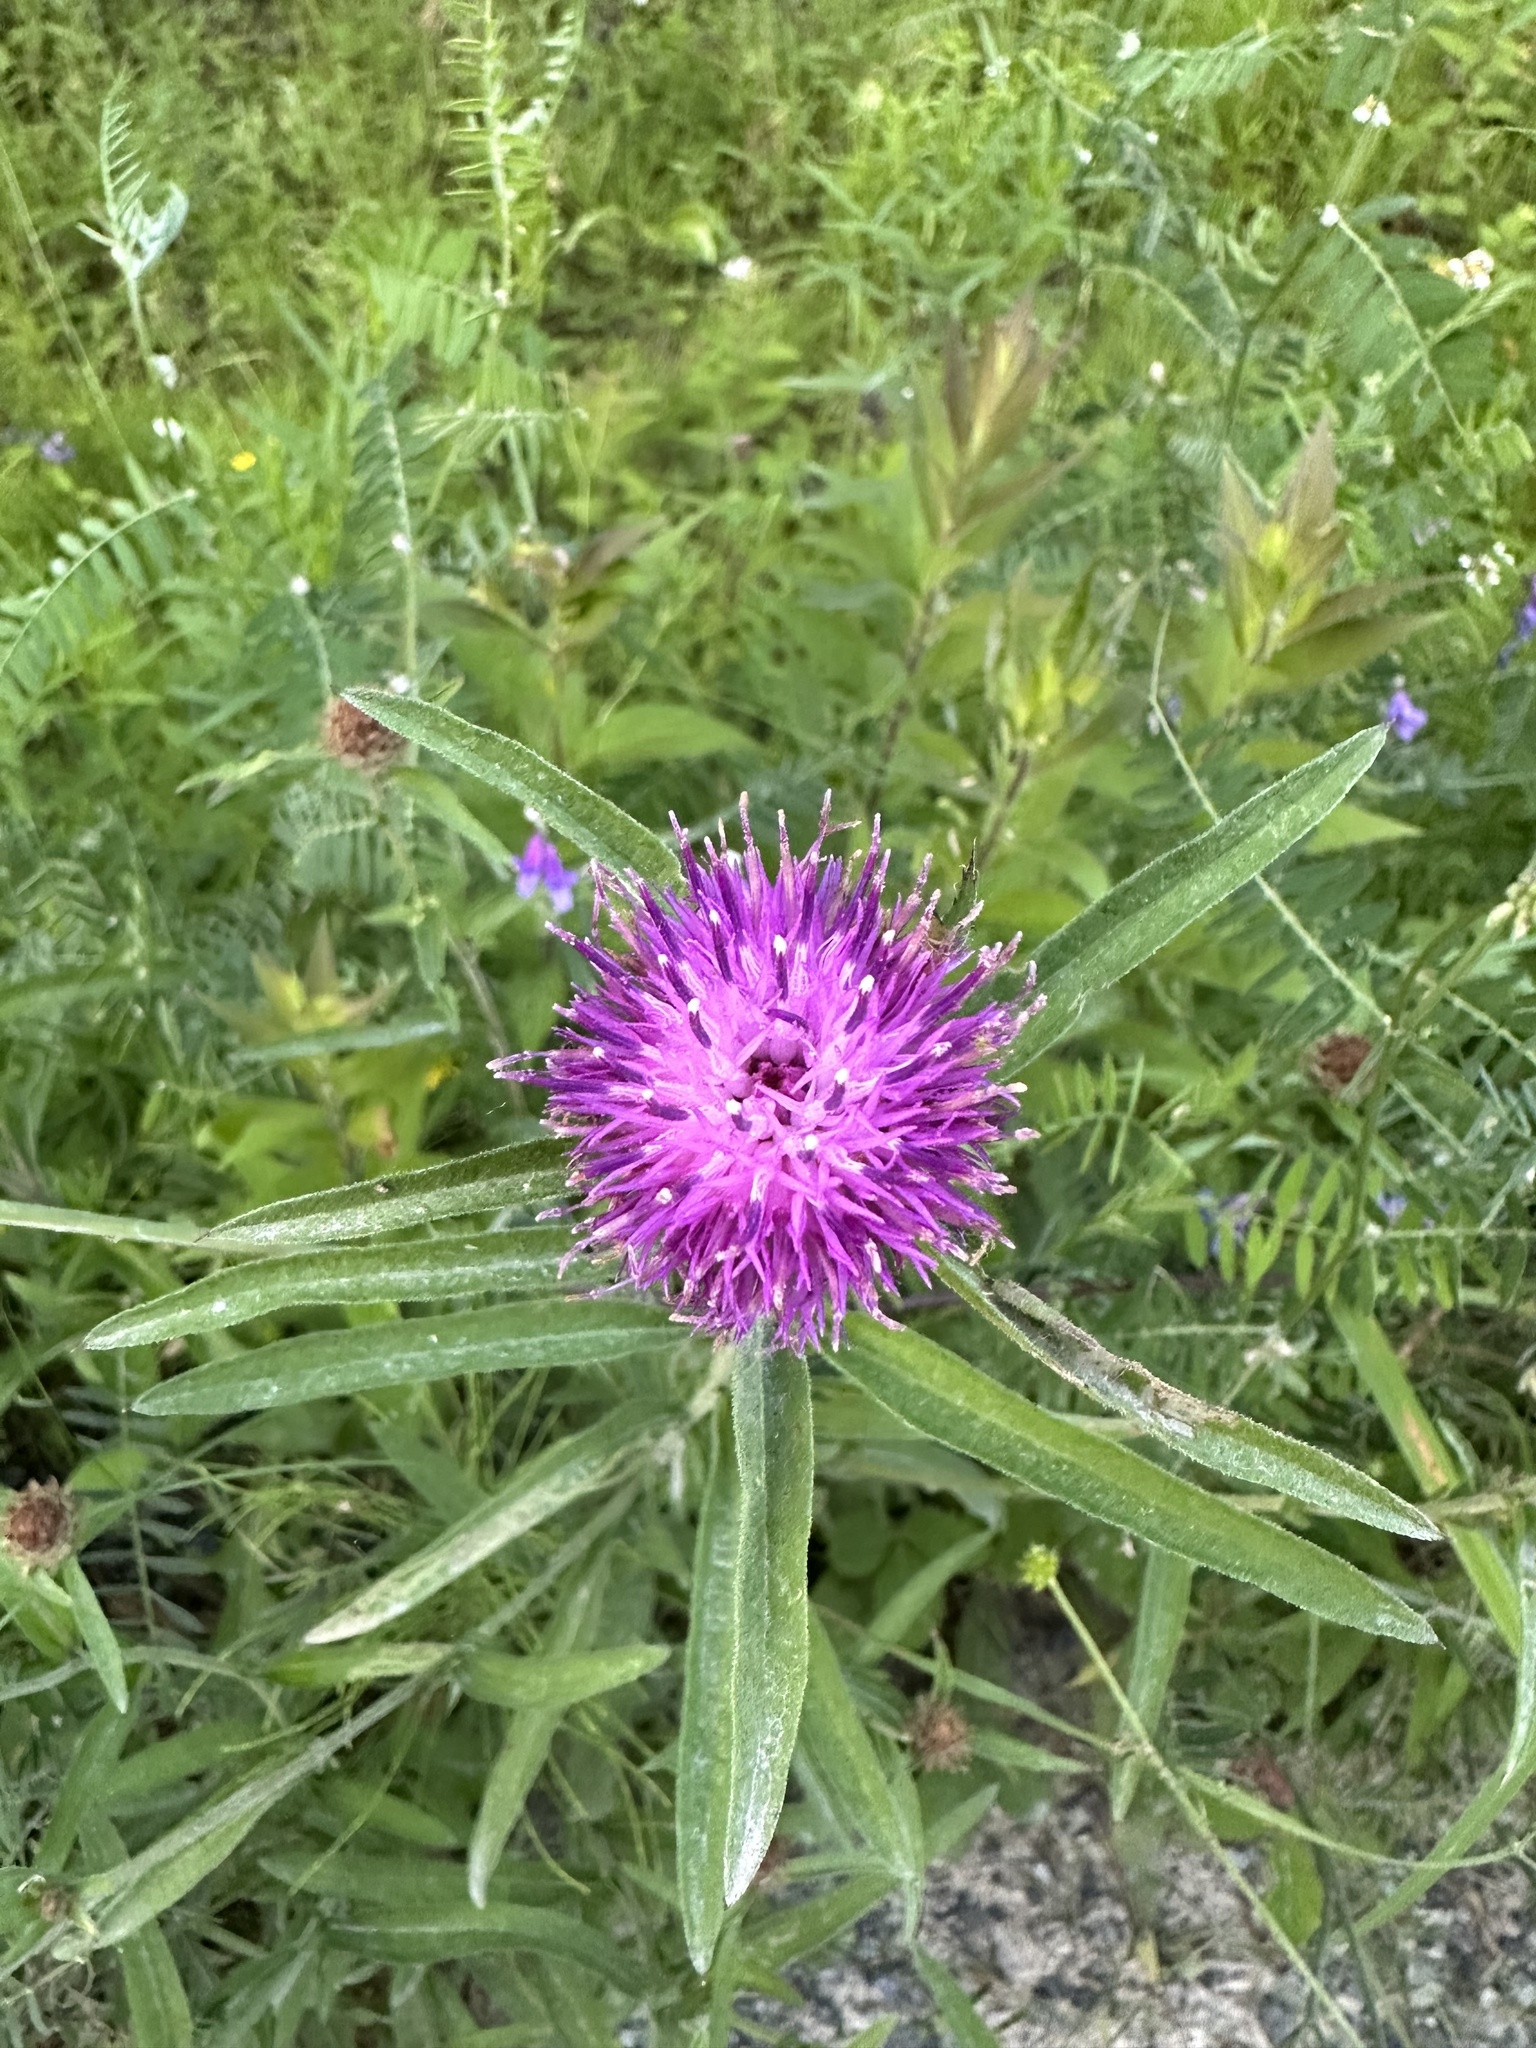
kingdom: Plantae
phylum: Tracheophyta
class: Magnoliopsida
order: Asterales
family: Asteraceae
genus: Centaurea
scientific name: Centaurea nigra
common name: Lesser knapweed
